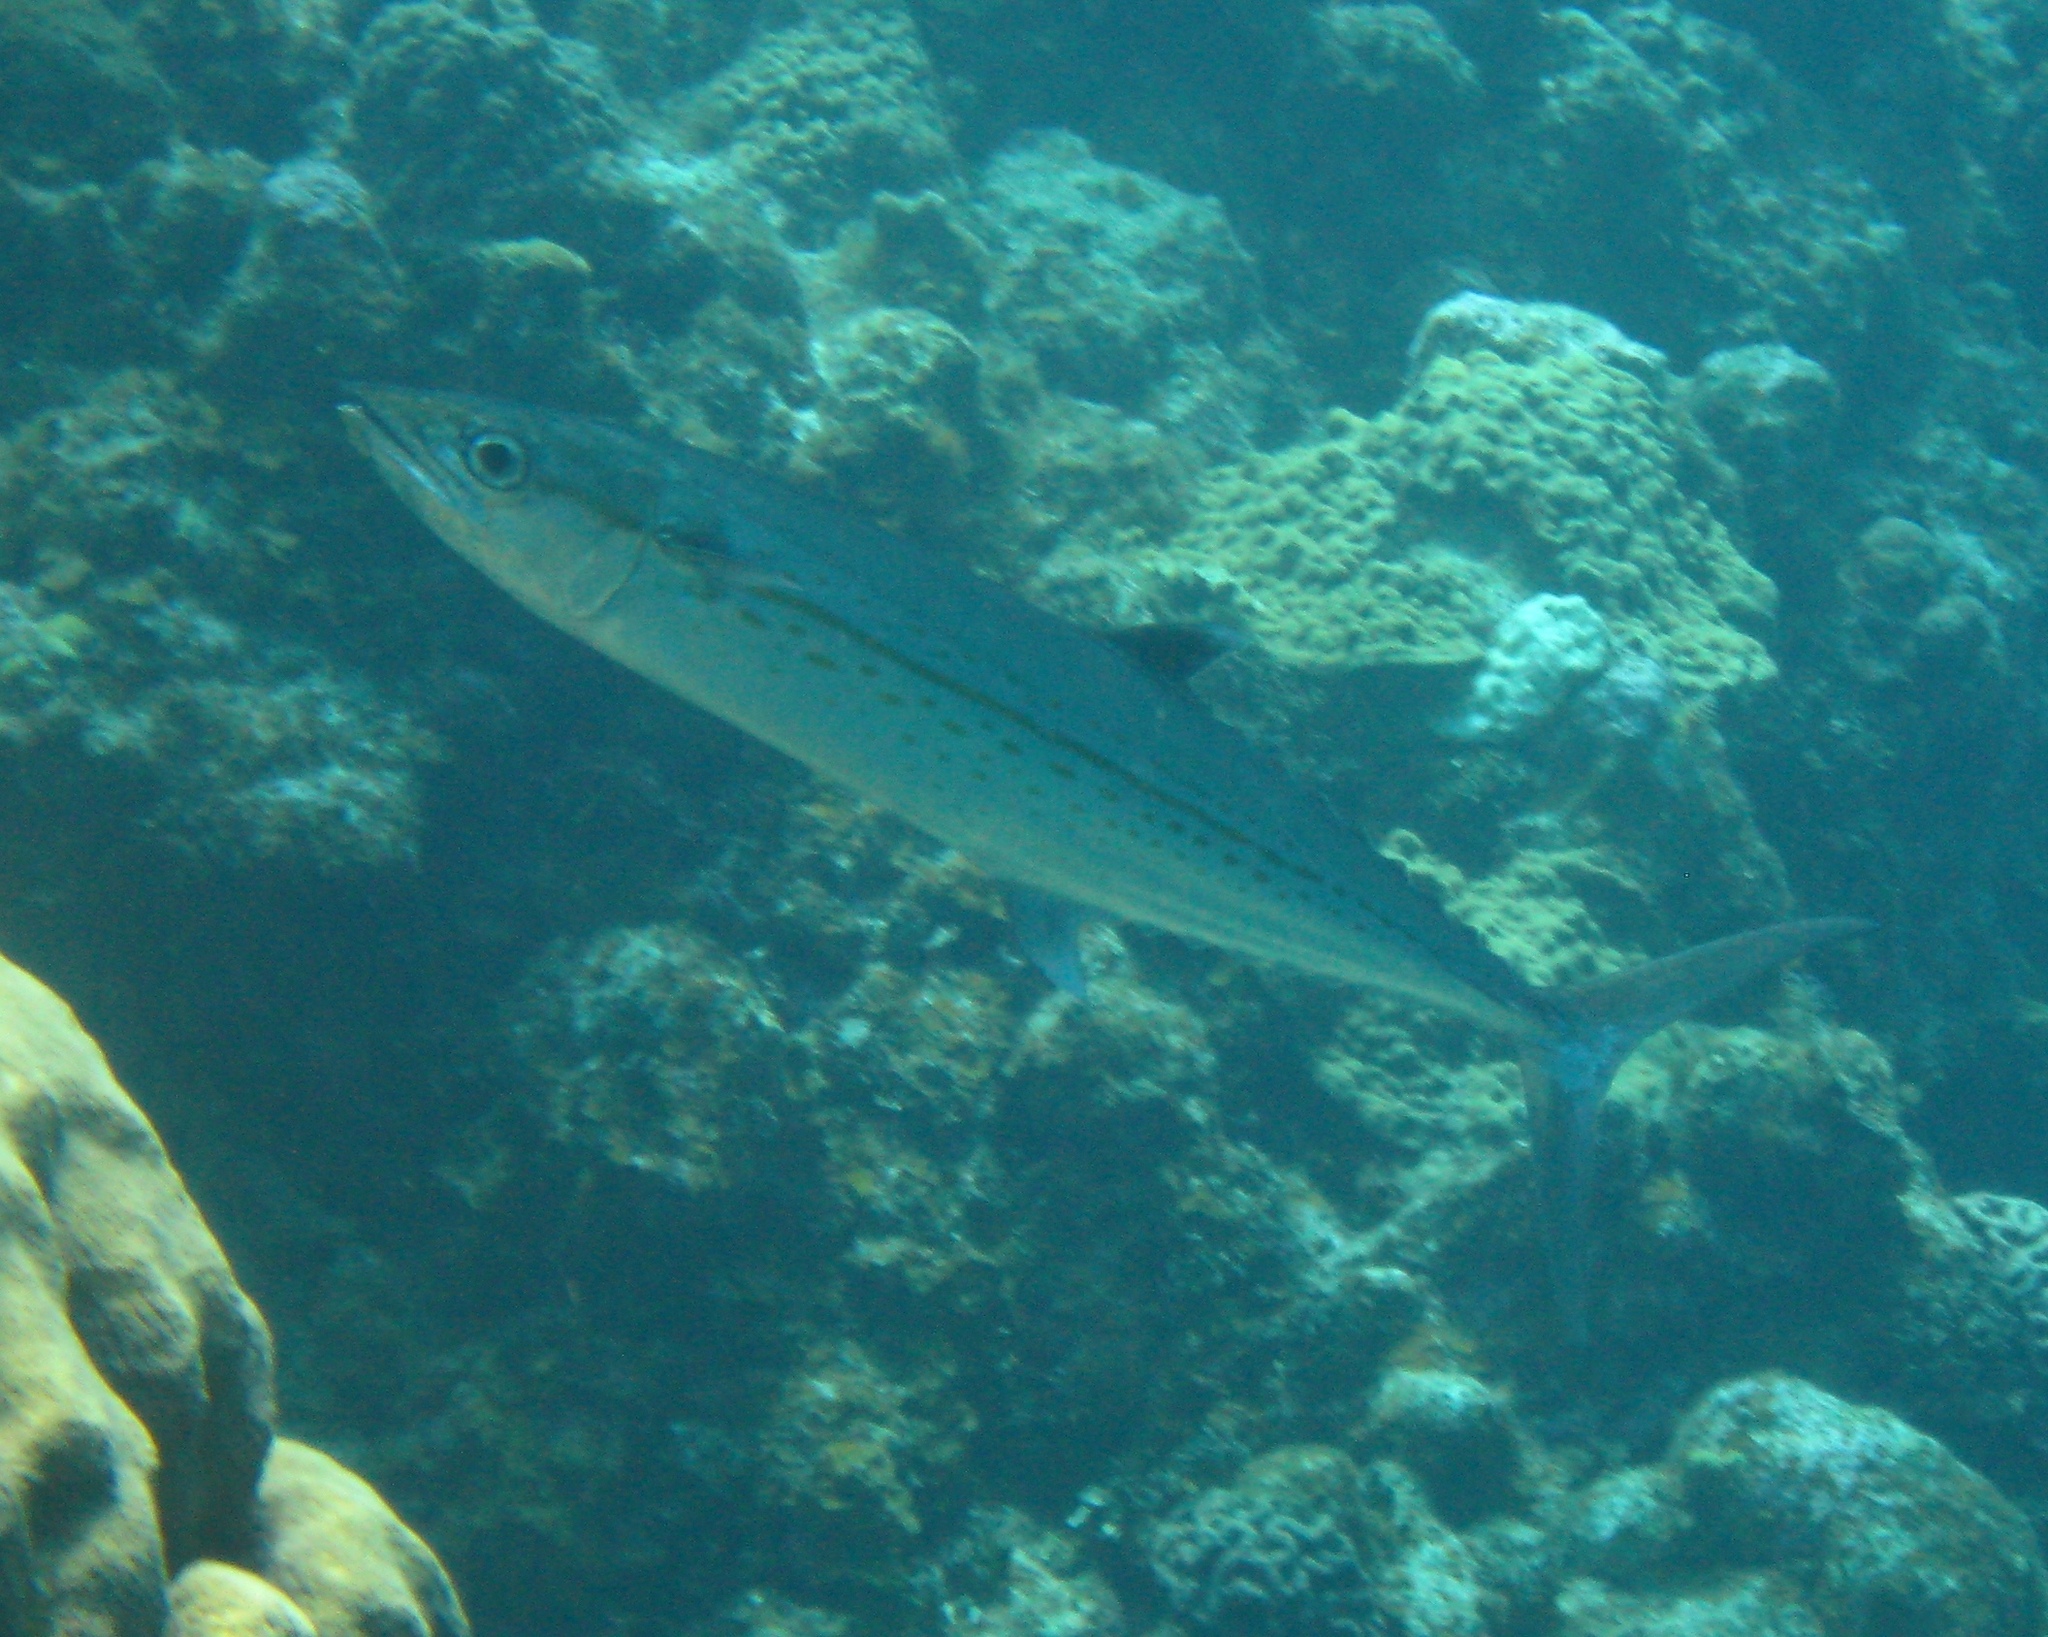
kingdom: Animalia
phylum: Chordata
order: Perciformes
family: Scombridae
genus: Scomberomorus
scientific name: Scomberomorus regalis
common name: Cero
